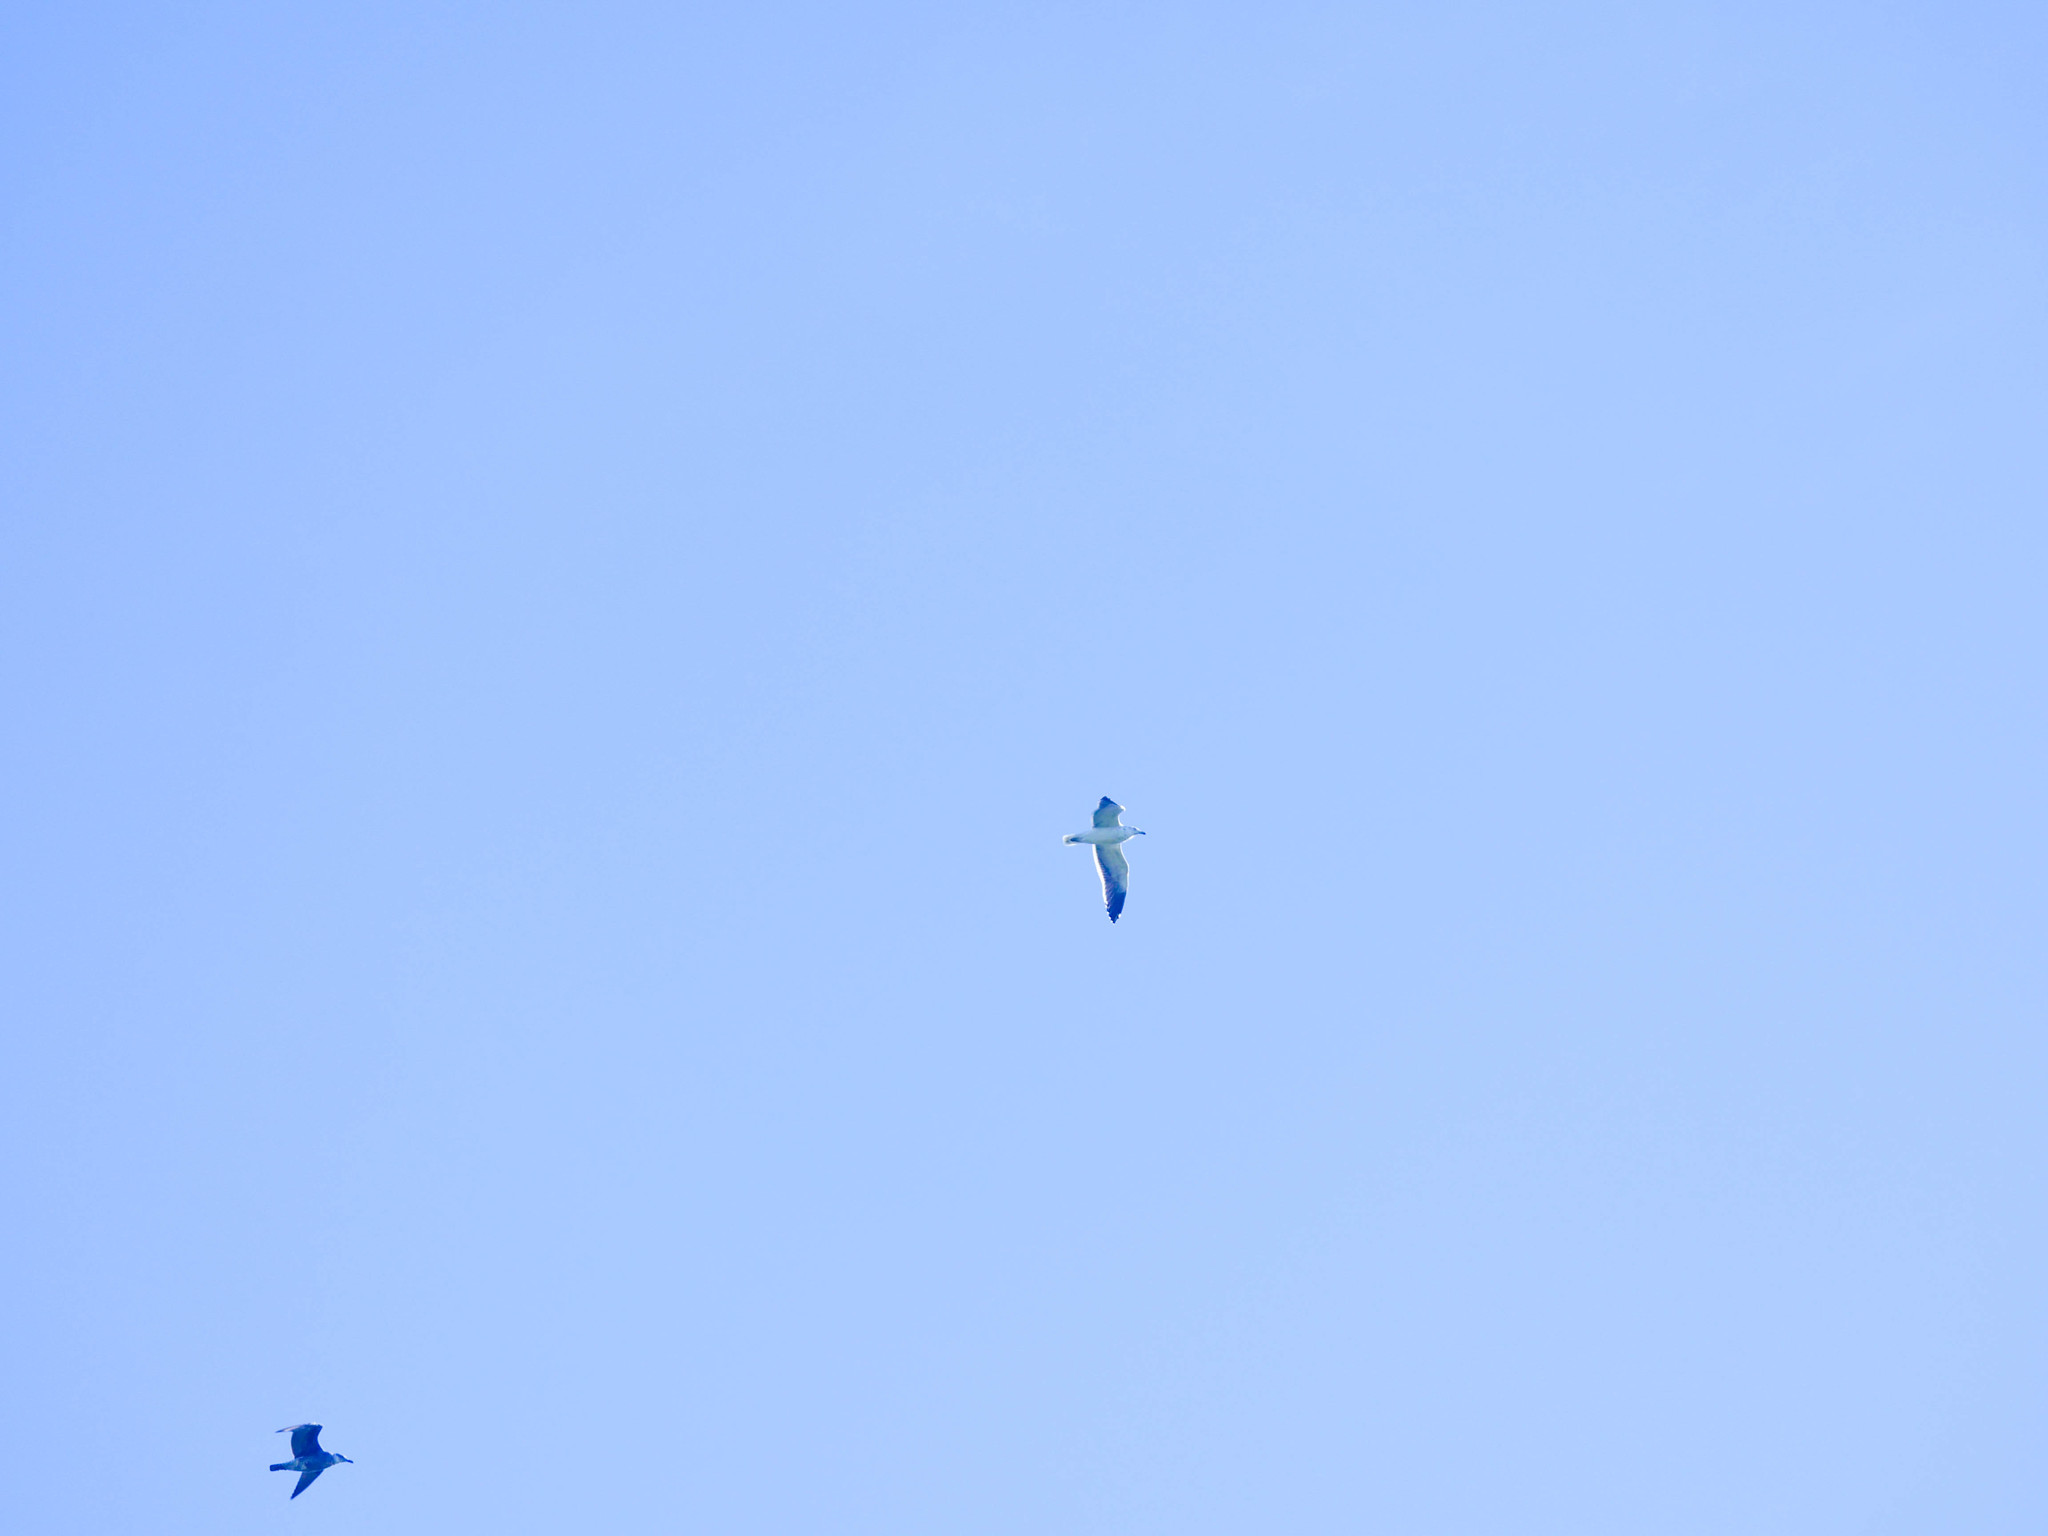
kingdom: Animalia
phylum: Chordata
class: Aves
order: Charadriiformes
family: Laridae
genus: Larus
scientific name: Larus dominicanus
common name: Kelp gull
